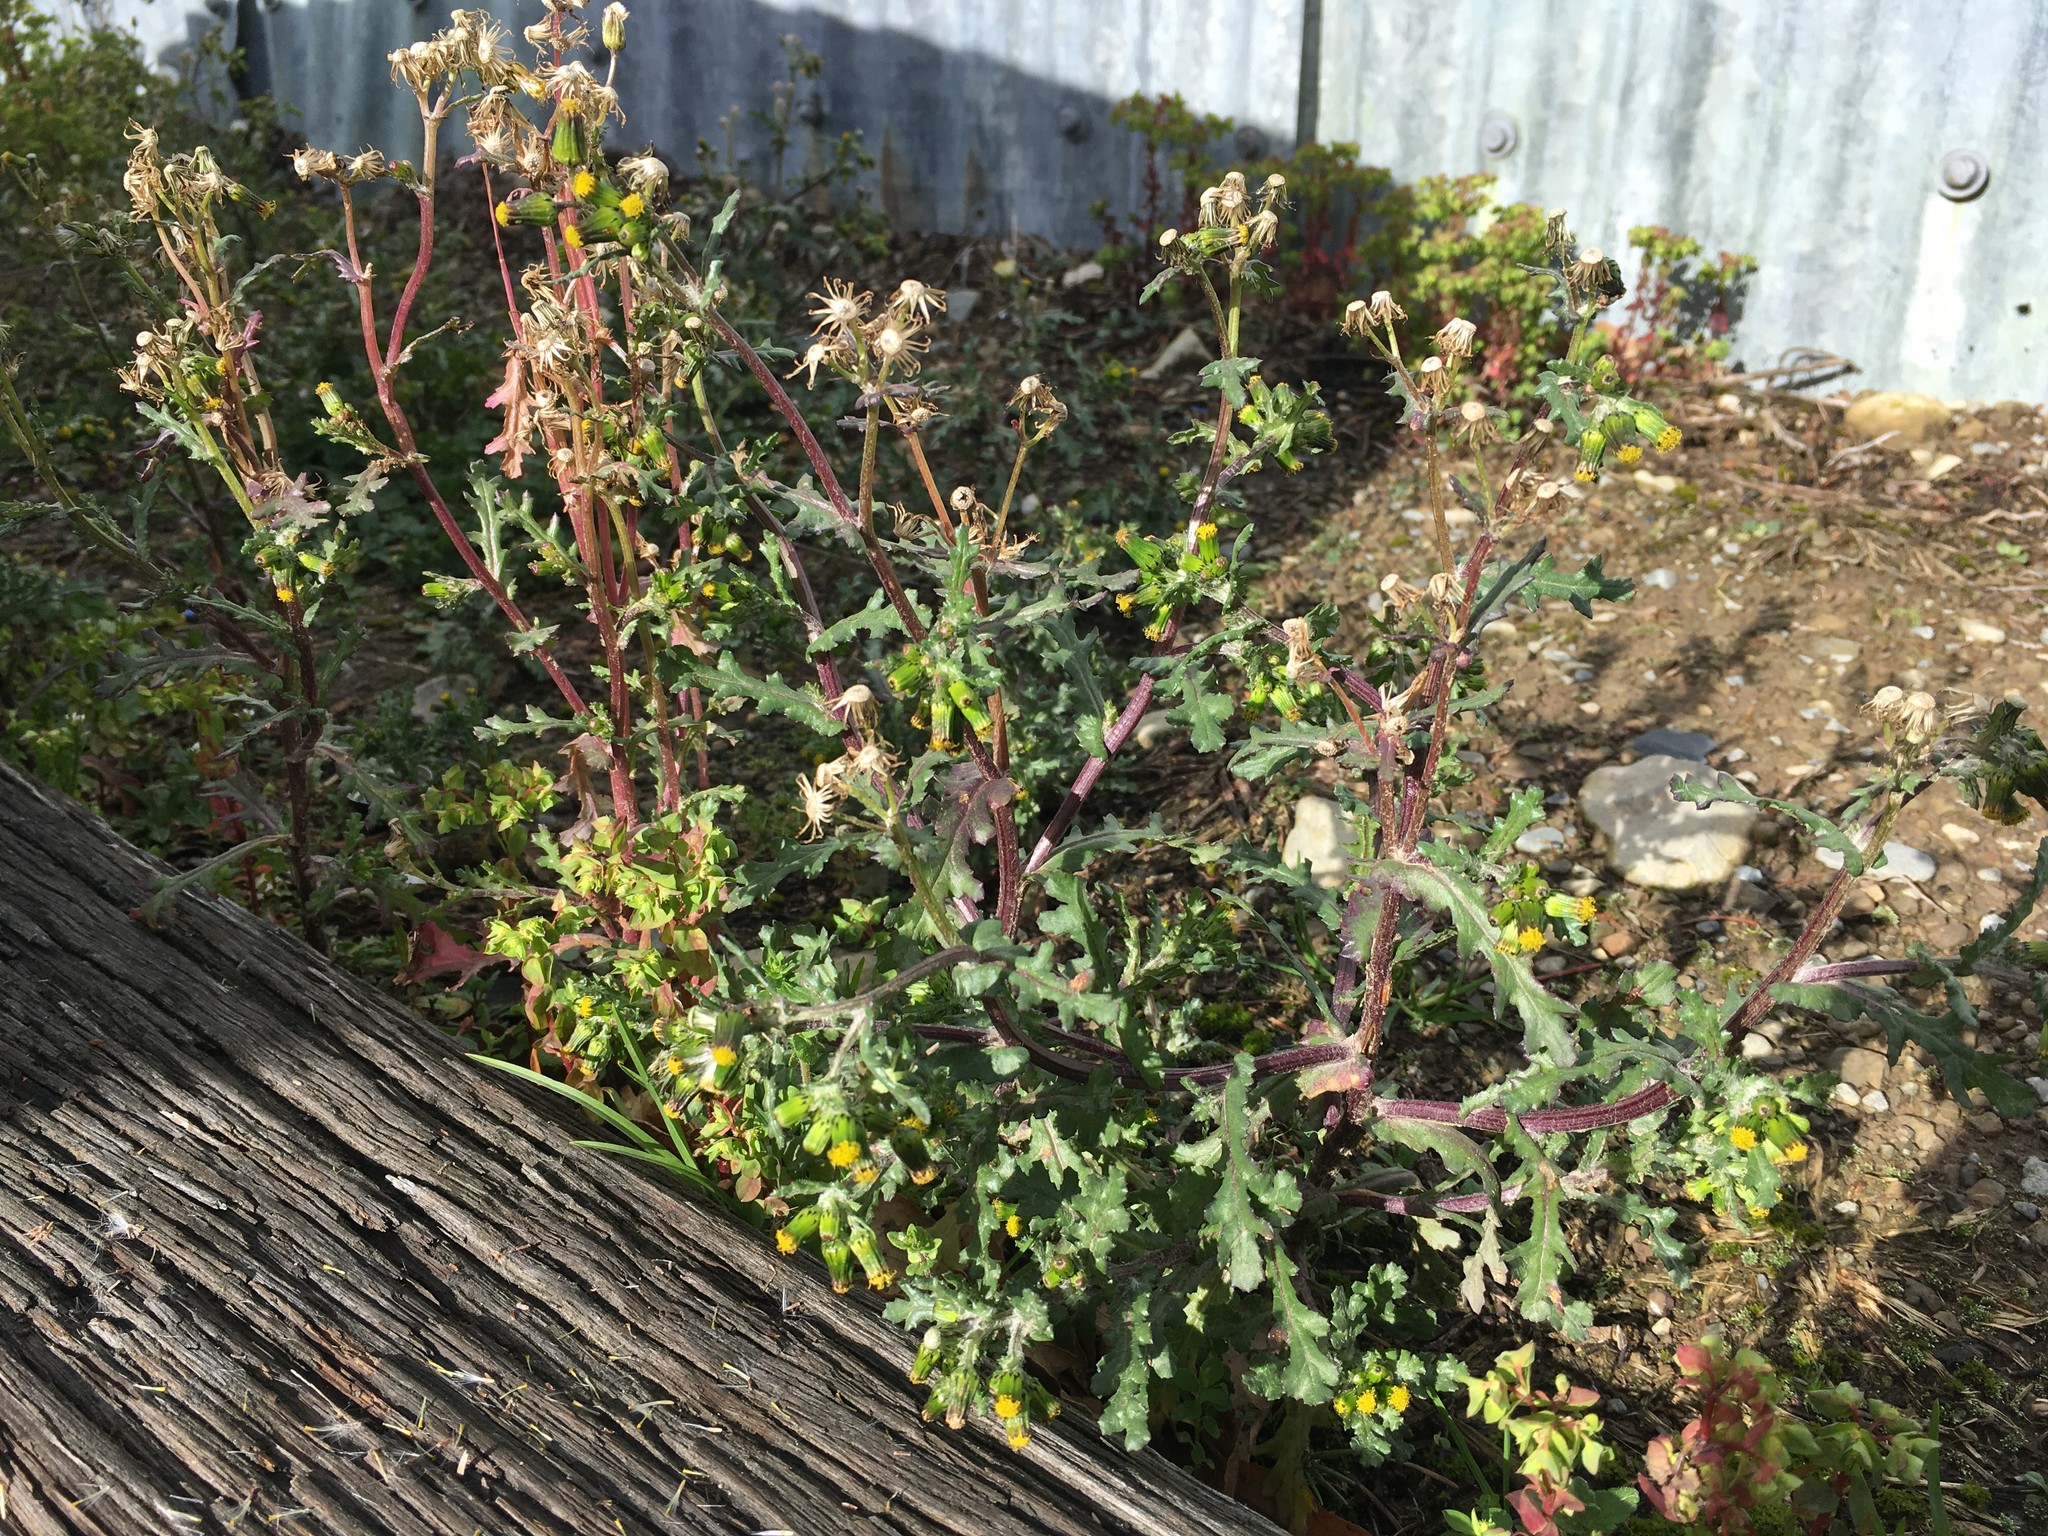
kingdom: Plantae
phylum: Tracheophyta
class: Magnoliopsida
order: Asterales
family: Asteraceae
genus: Senecio
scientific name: Senecio vulgaris
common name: Old-man-in-the-spring
